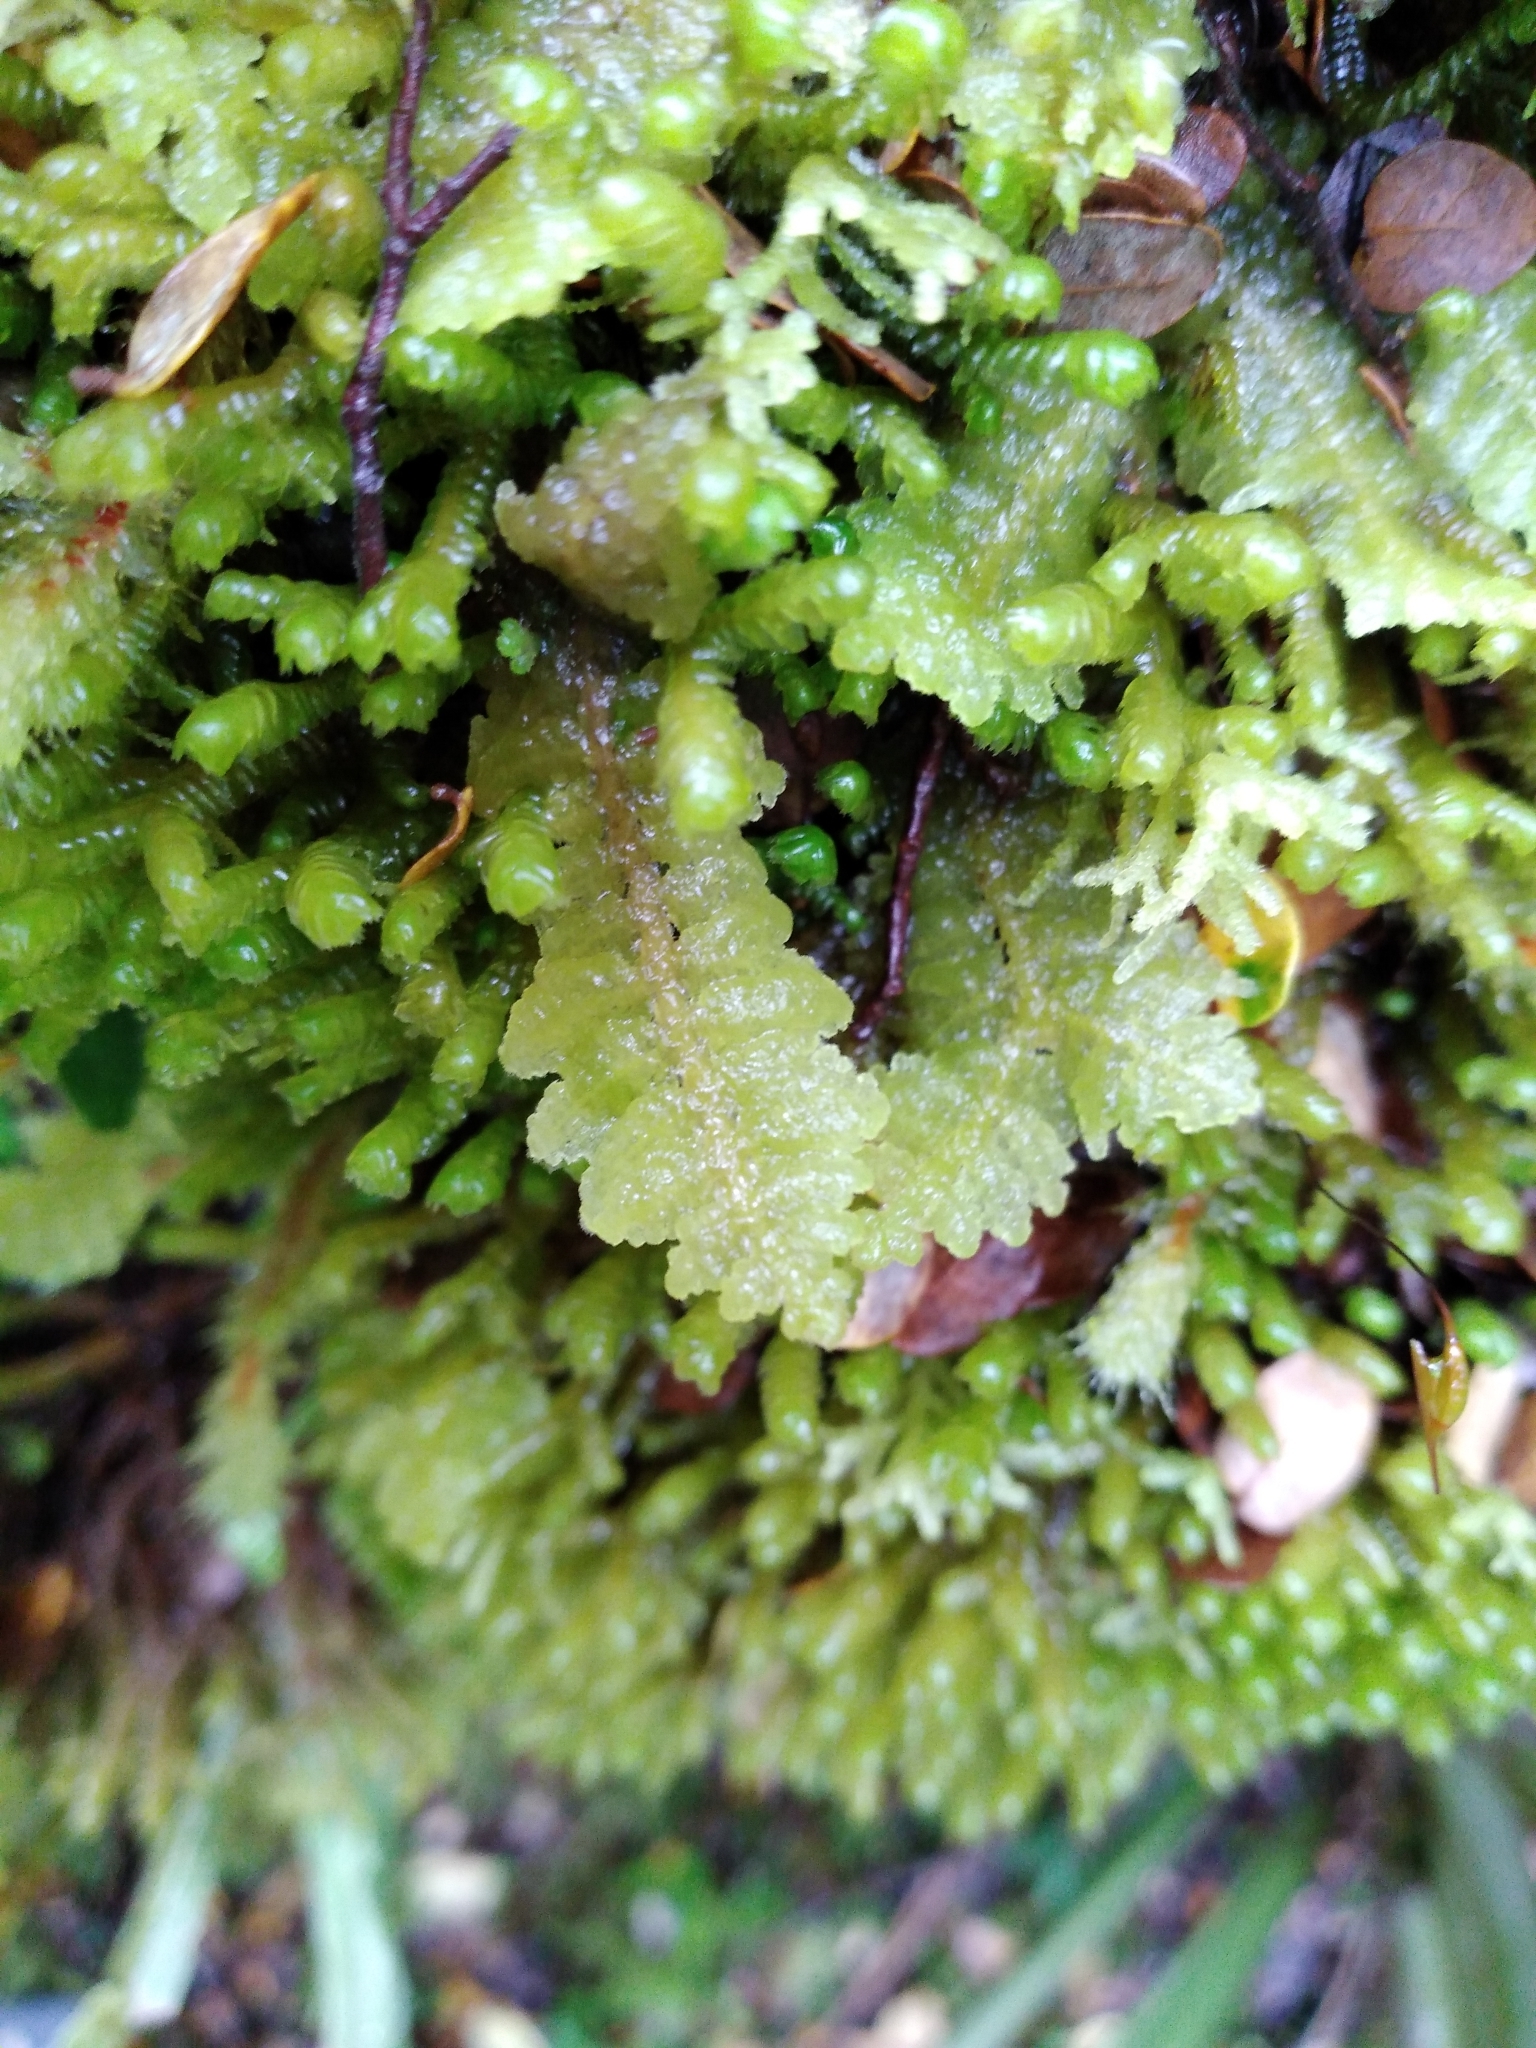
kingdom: Plantae
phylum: Marchantiophyta
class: Jungermanniopsida
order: Porellales
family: Lepidolaenaceae
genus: Lepidogyna
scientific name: Lepidogyna hodgsoniae
